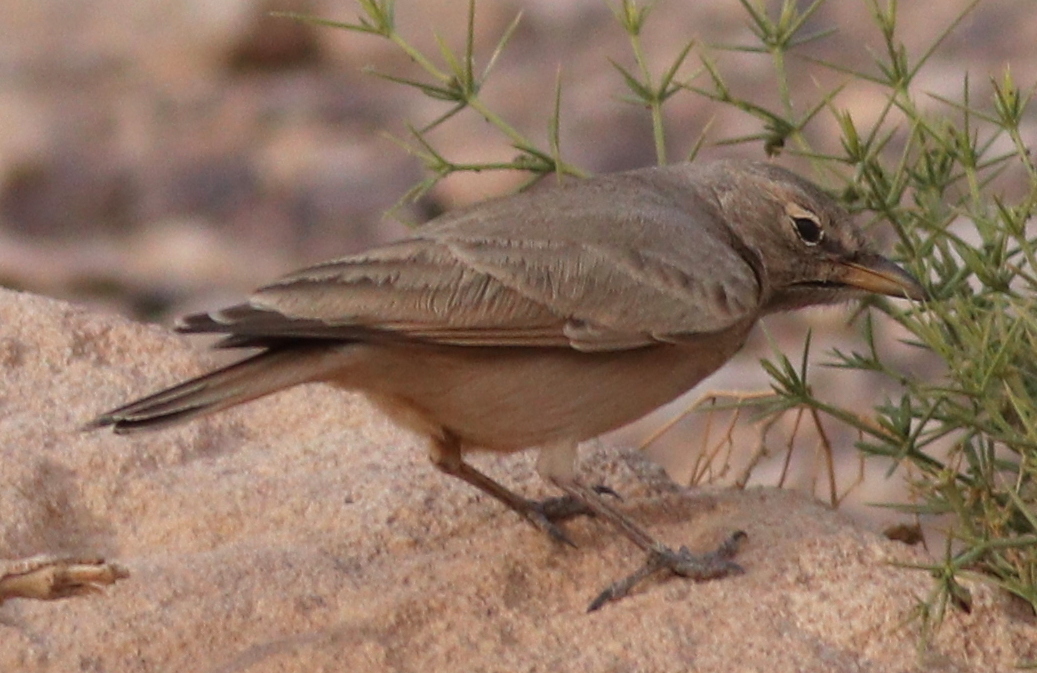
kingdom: Animalia
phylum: Chordata
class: Aves
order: Passeriformes
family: Alaudidae
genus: Ammomanes
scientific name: Ammomanes deserti
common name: Desert lark
